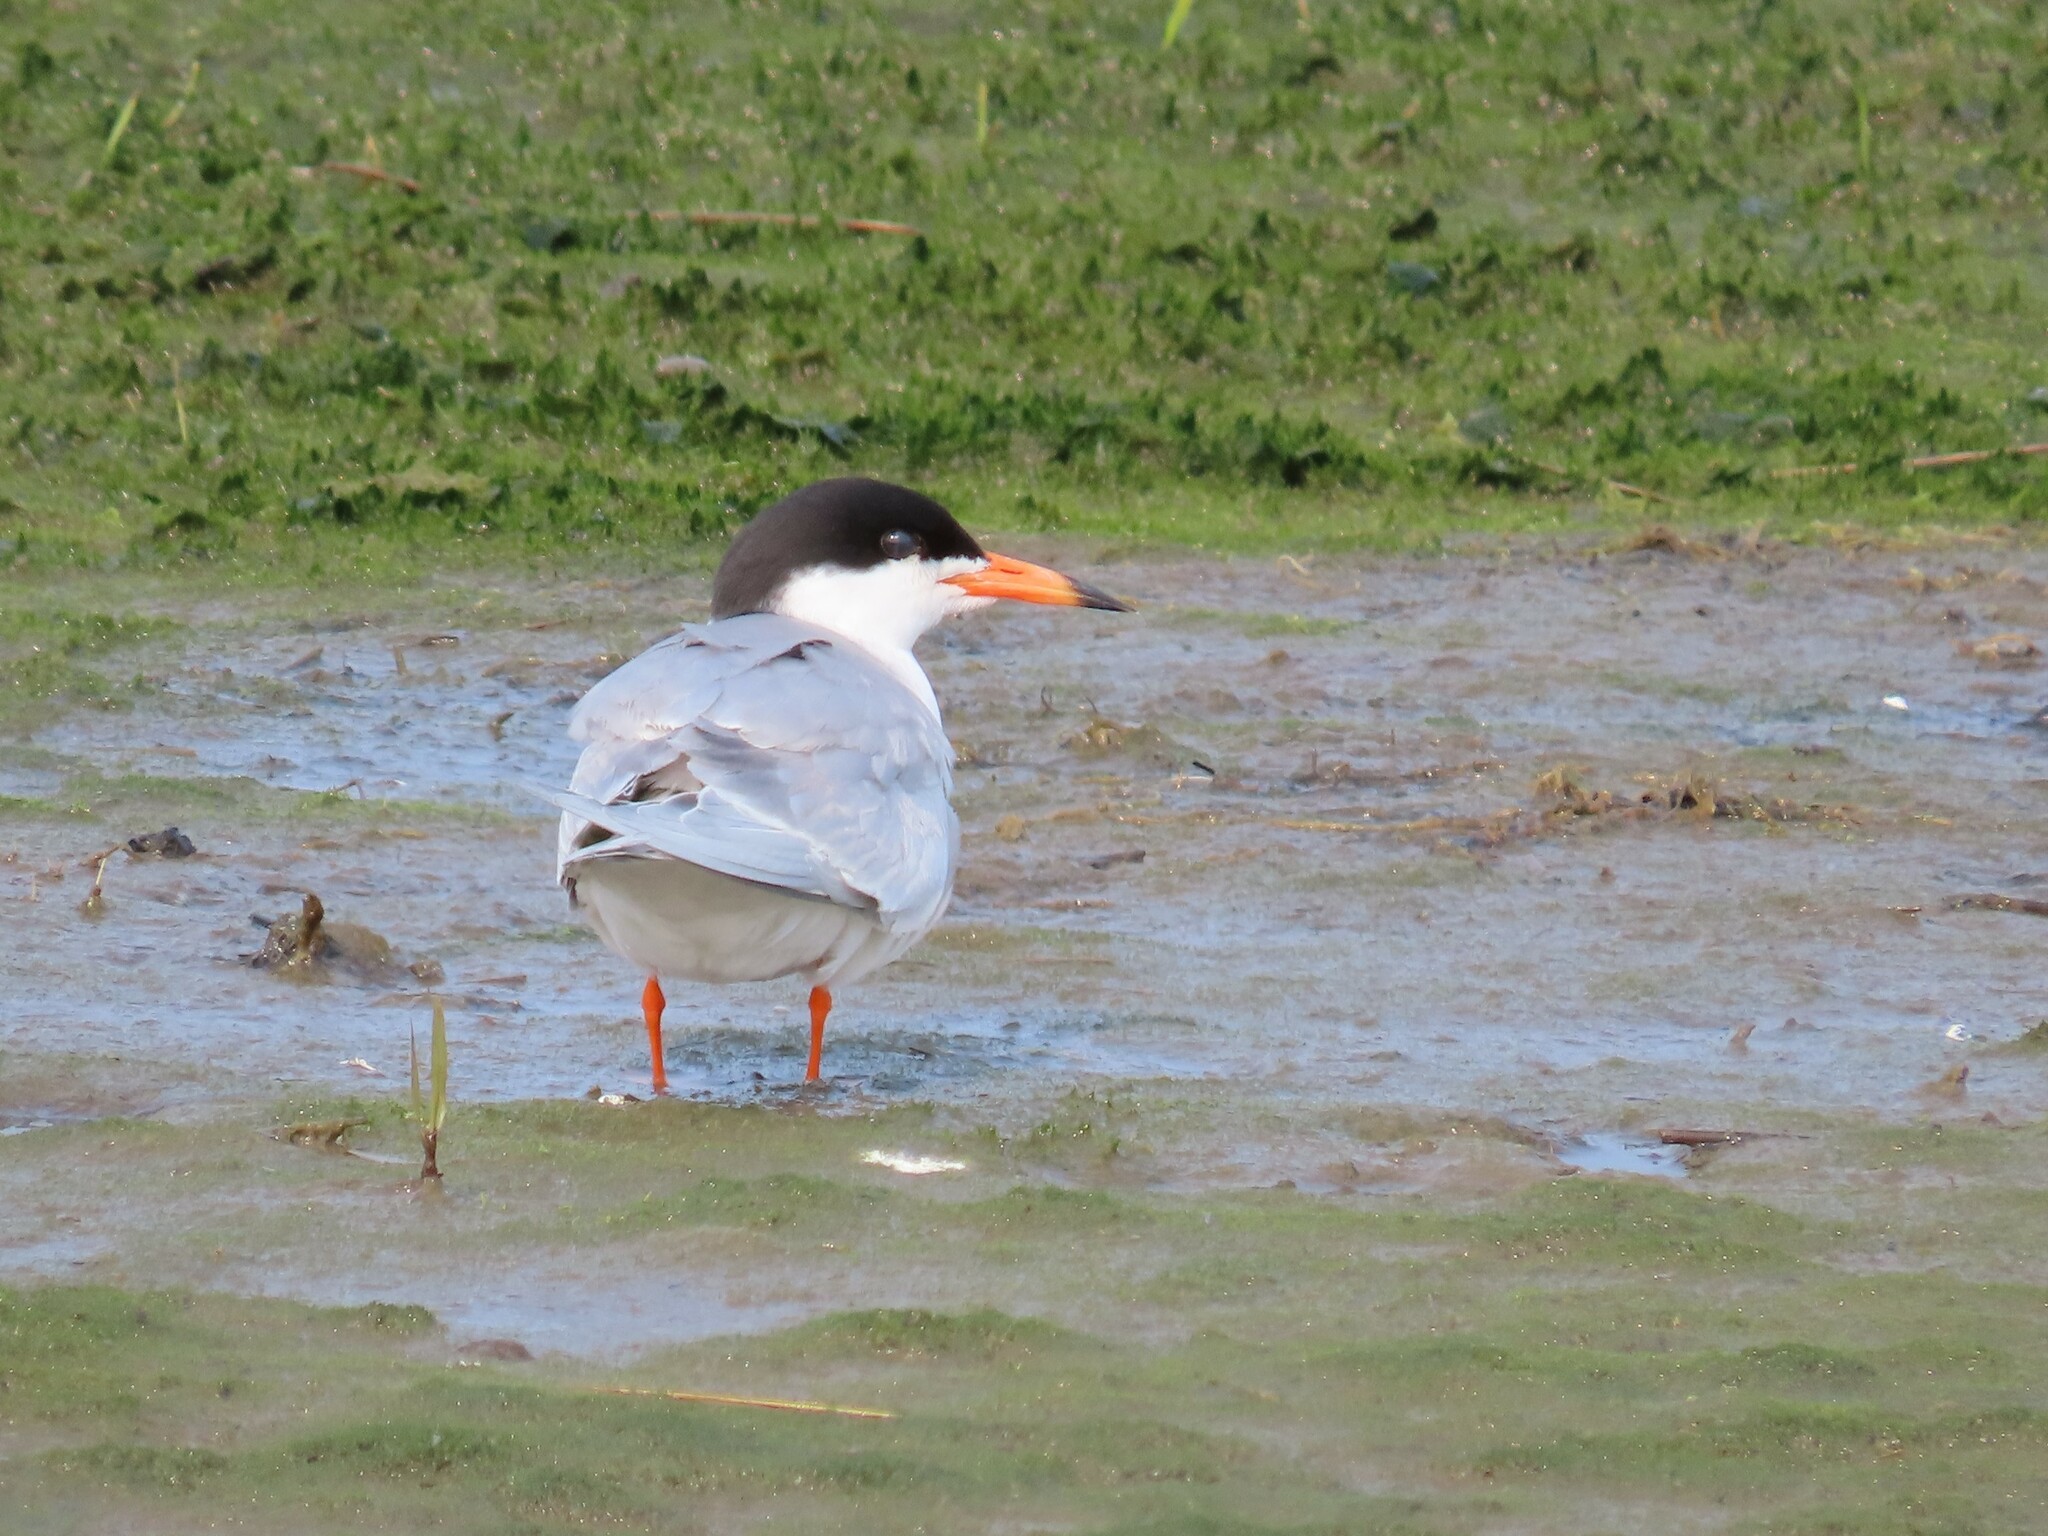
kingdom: Animalia
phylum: Chordata
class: Aves
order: Charadriiformes
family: Laridae
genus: Sterna
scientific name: Sterna forsteri
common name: Forster's tern
